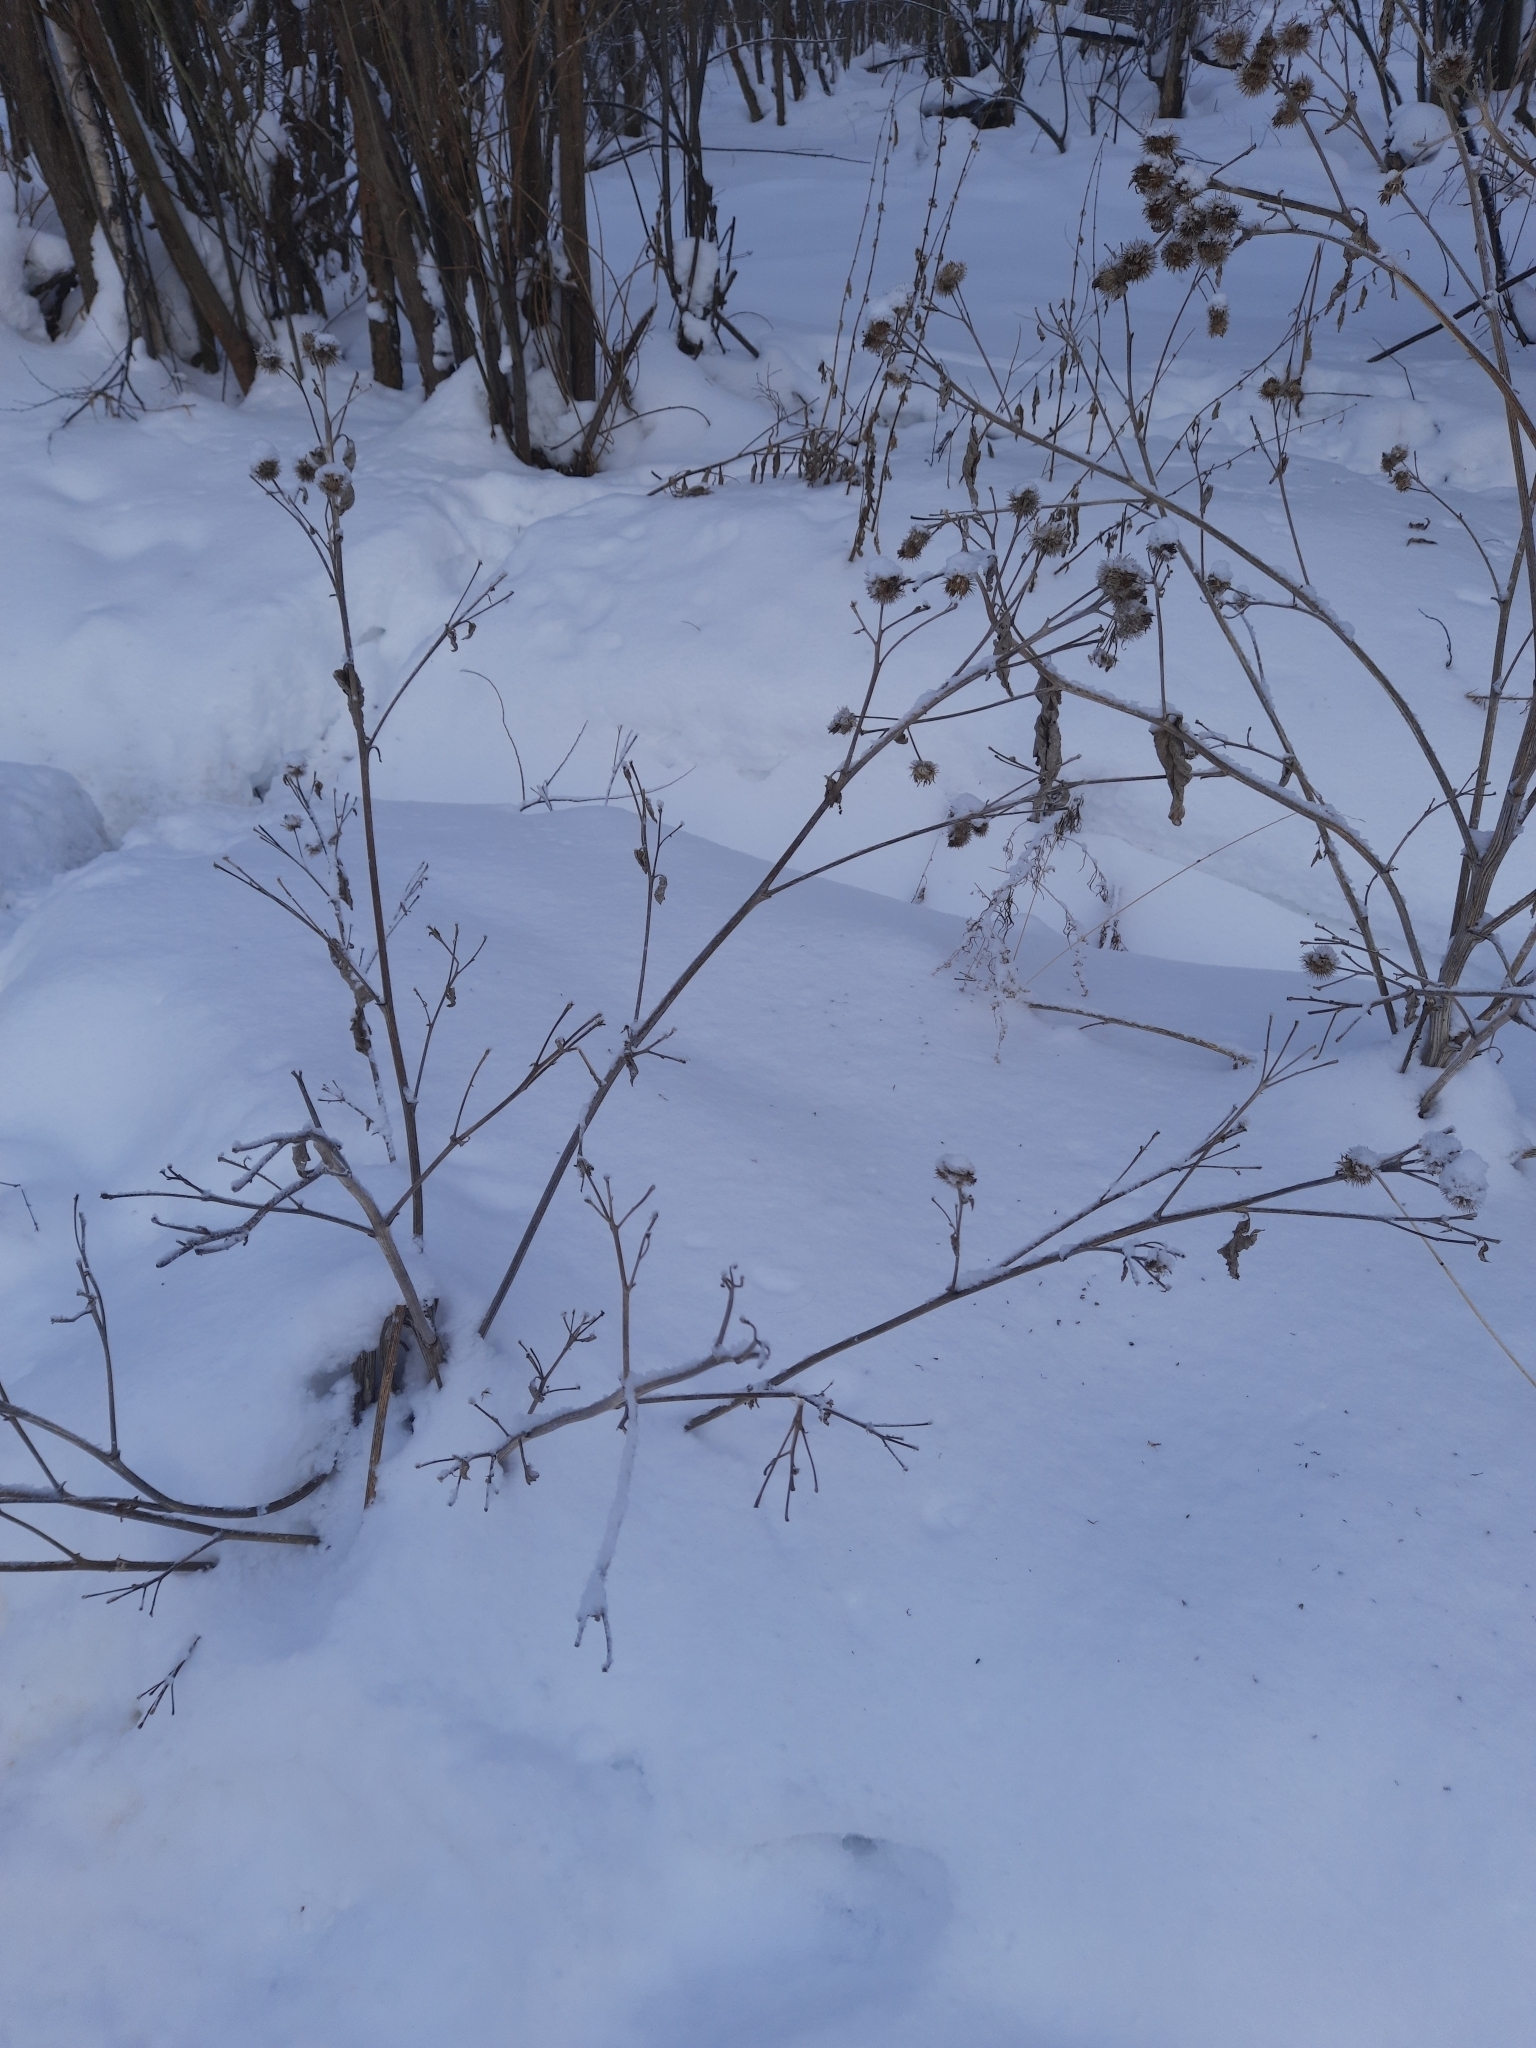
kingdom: Plantae
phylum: Tracheophyta
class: Magnoliopsida
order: Asterales
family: Asteraceae
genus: Arctium
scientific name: Arctium tomentosum
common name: Woolly burdock
